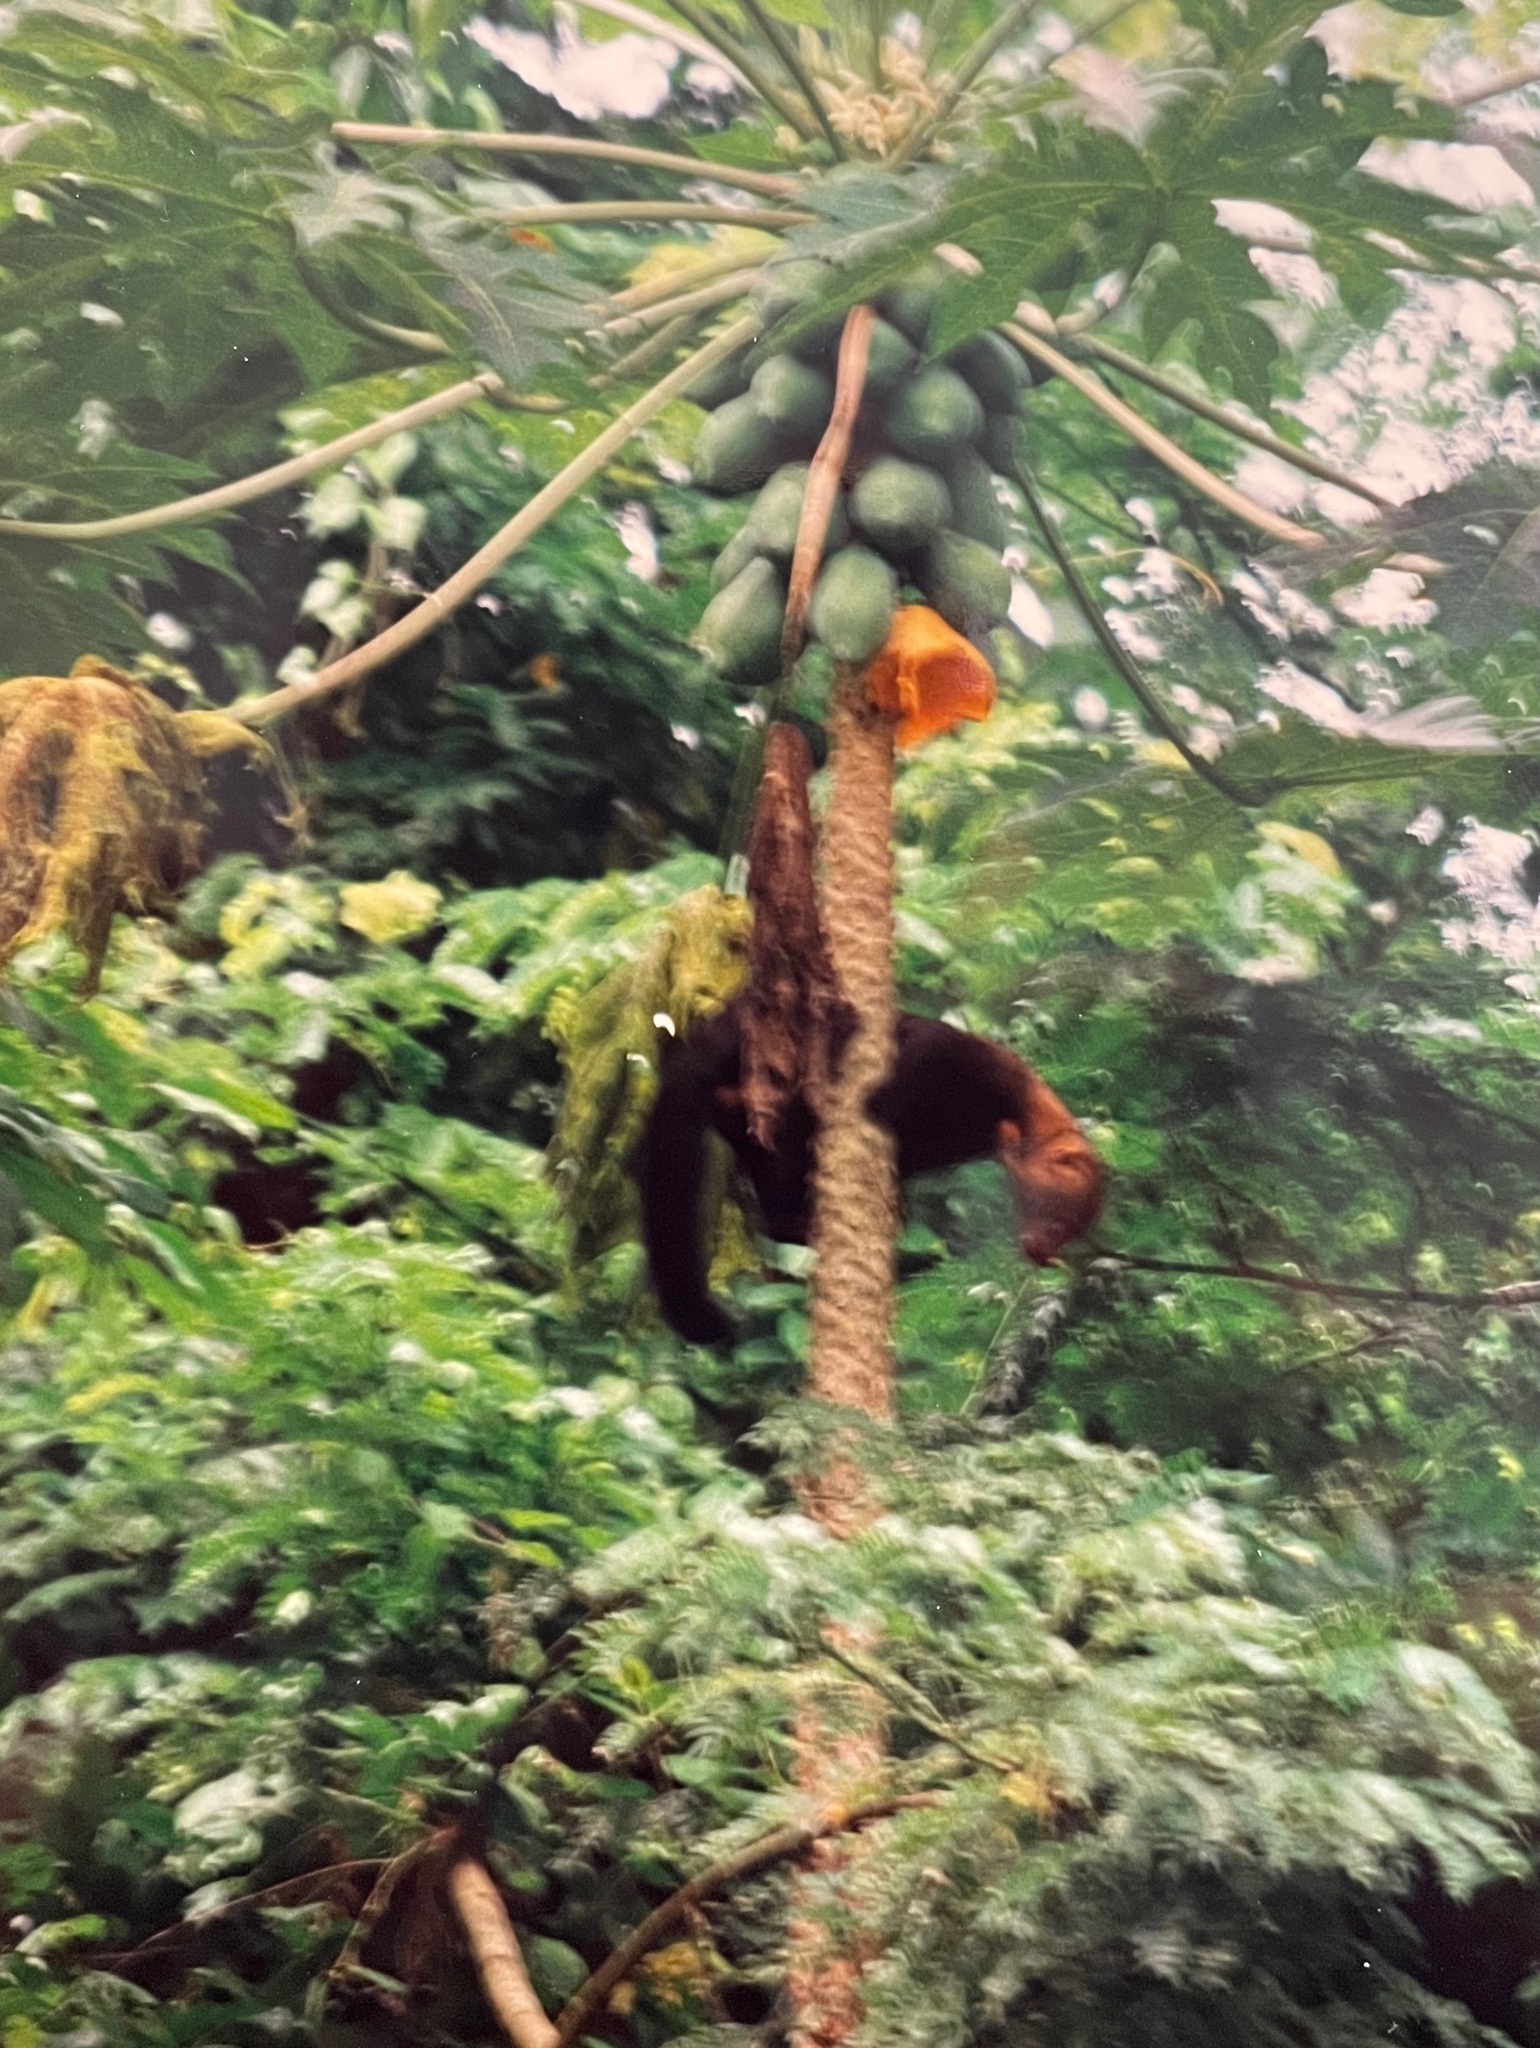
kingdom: Animalia
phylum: Chordata
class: Mammalia
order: Carnivora
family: Mustelidae
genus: Eira
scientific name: Eira barbara
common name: Tayra
